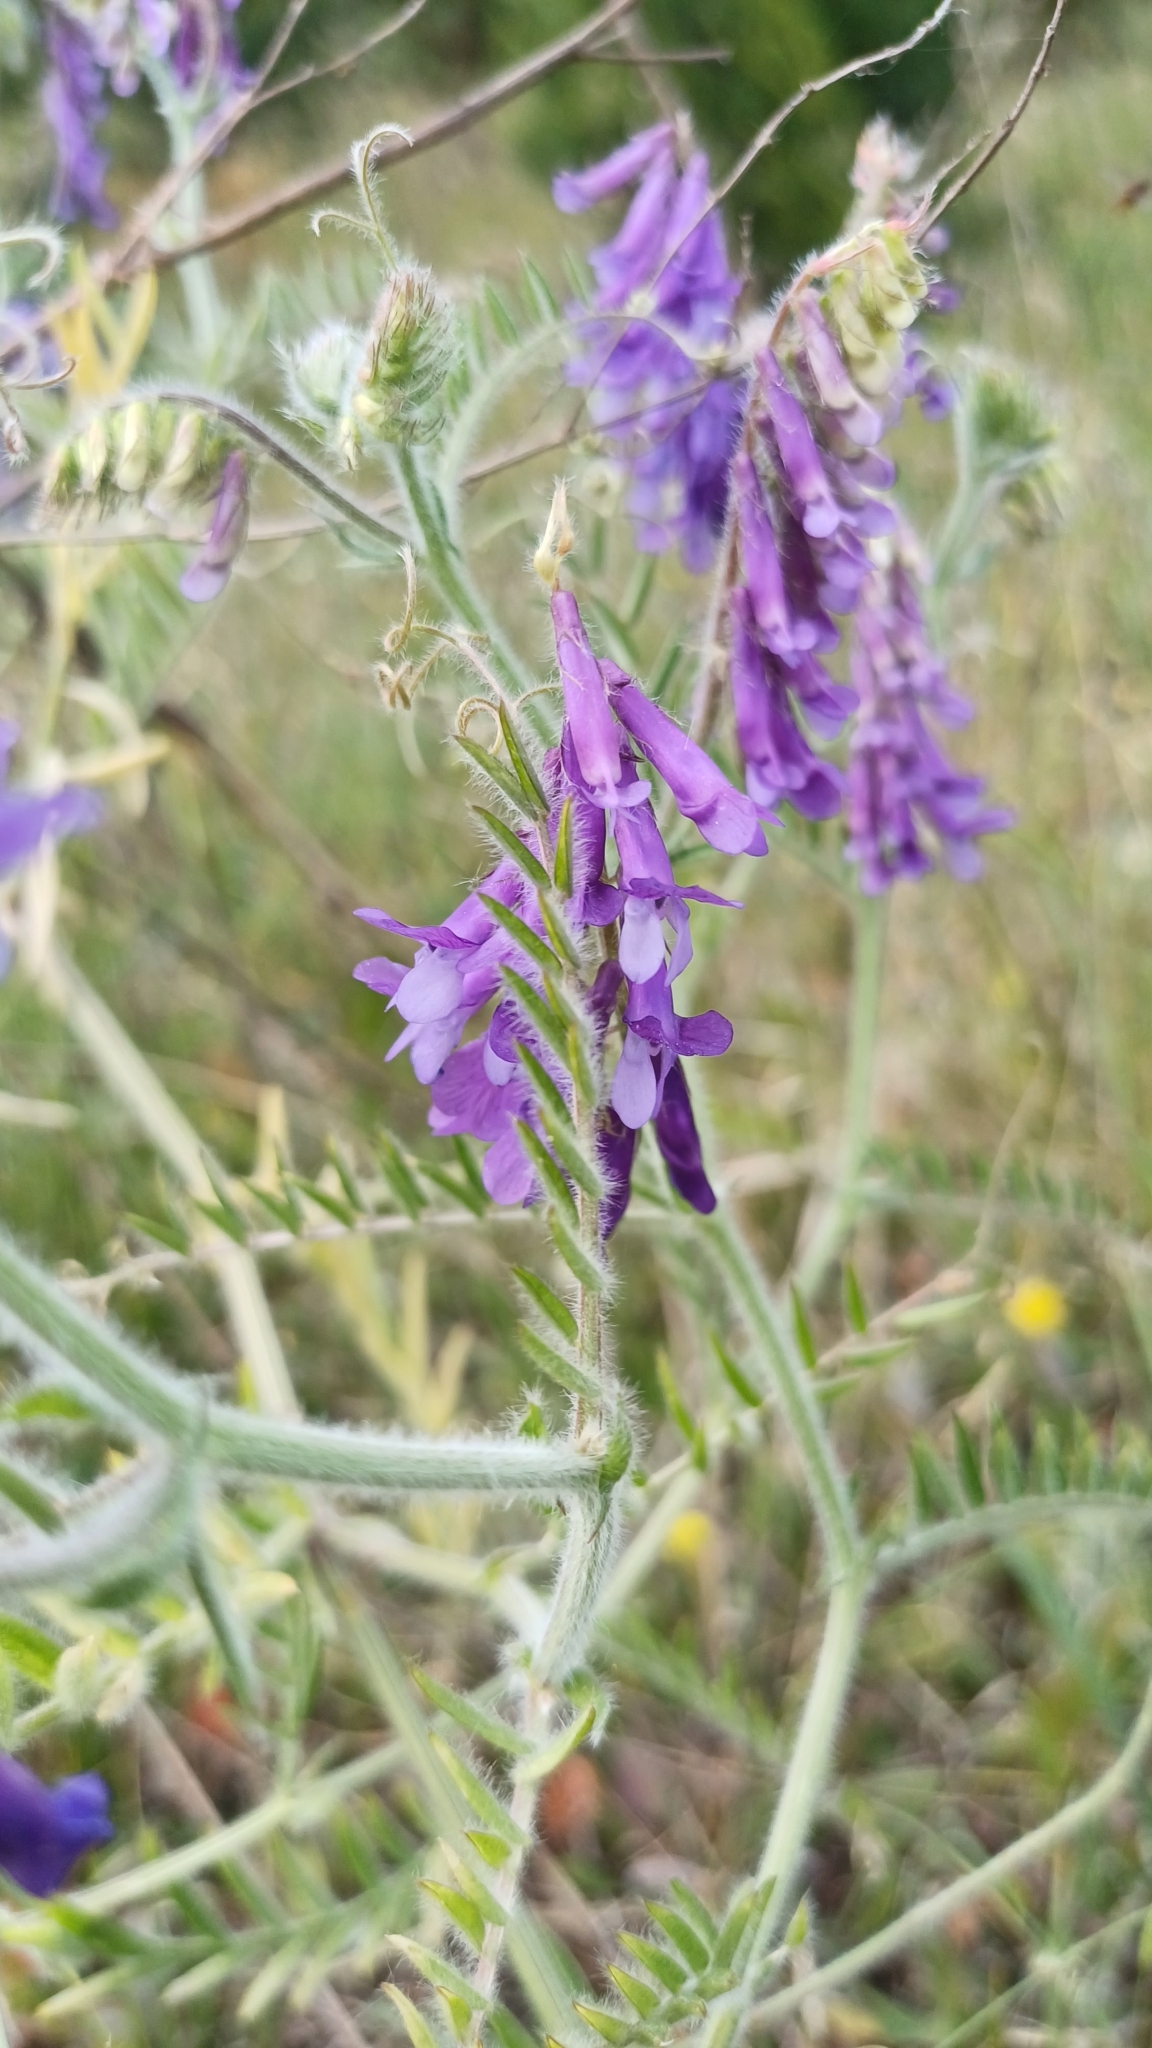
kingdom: Plantae
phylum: Tracheophyta
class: Magnoliopsida
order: Fabales
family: Fabaceae
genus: Vicia
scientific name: Vicia villosa
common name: Fodder vetch
